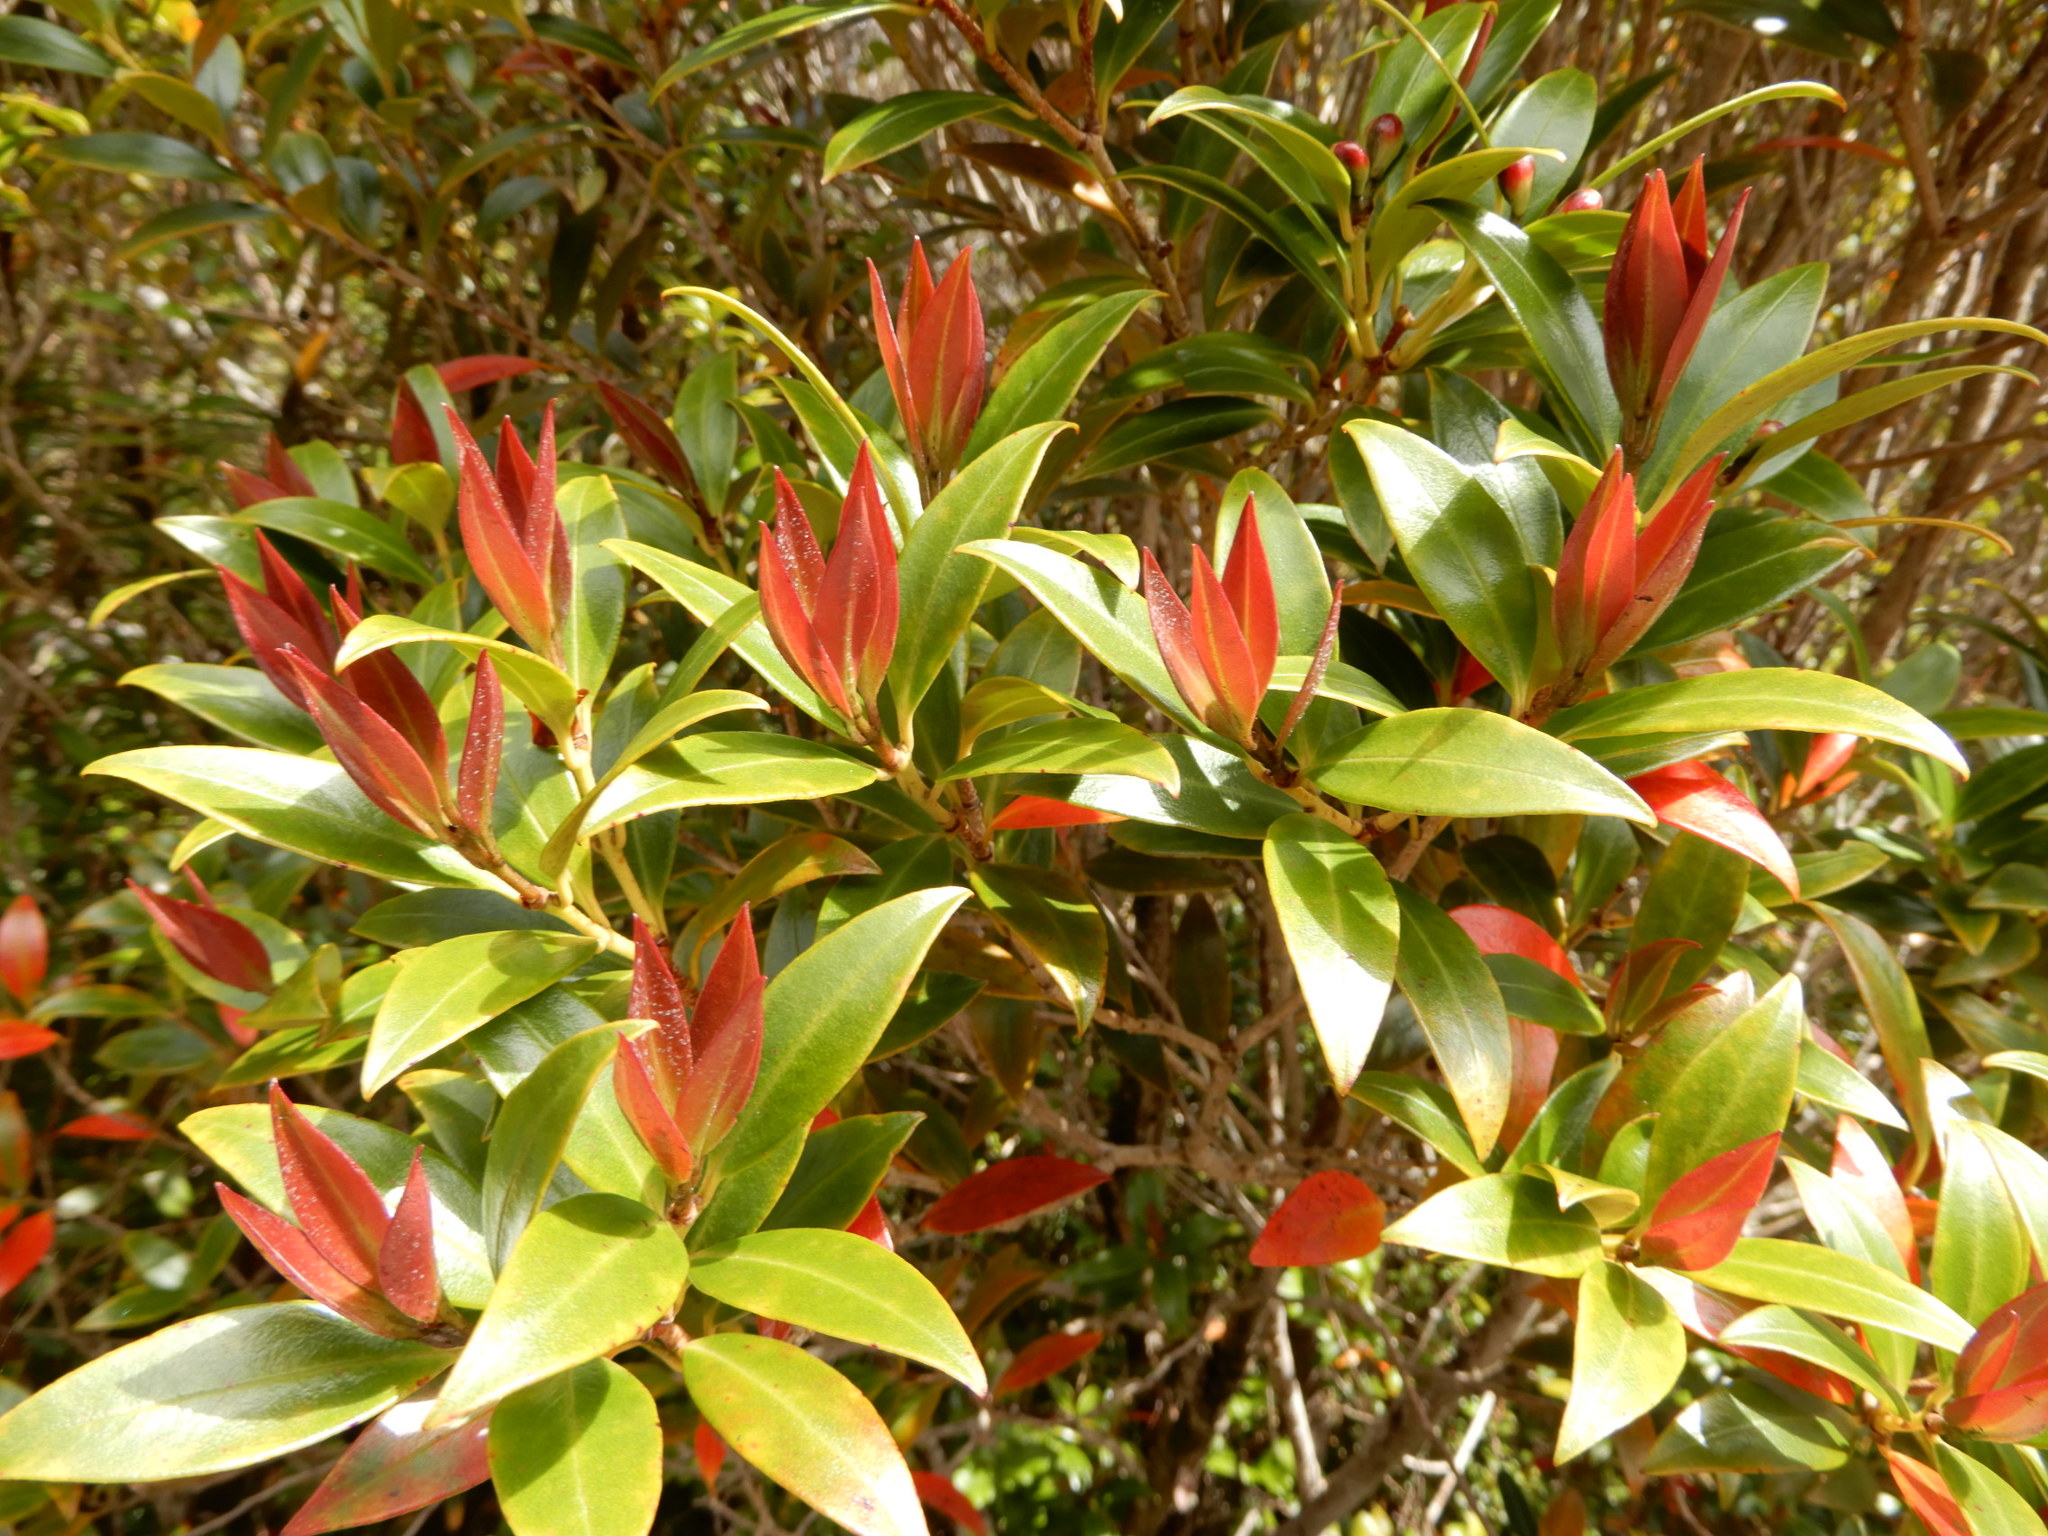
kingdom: Plantae
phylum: Tracheophyta
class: Magnoliopsida
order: Myrtales
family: Myrtaceae
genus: Metrosideros
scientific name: Metrosideros umbellata
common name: Southern rata
